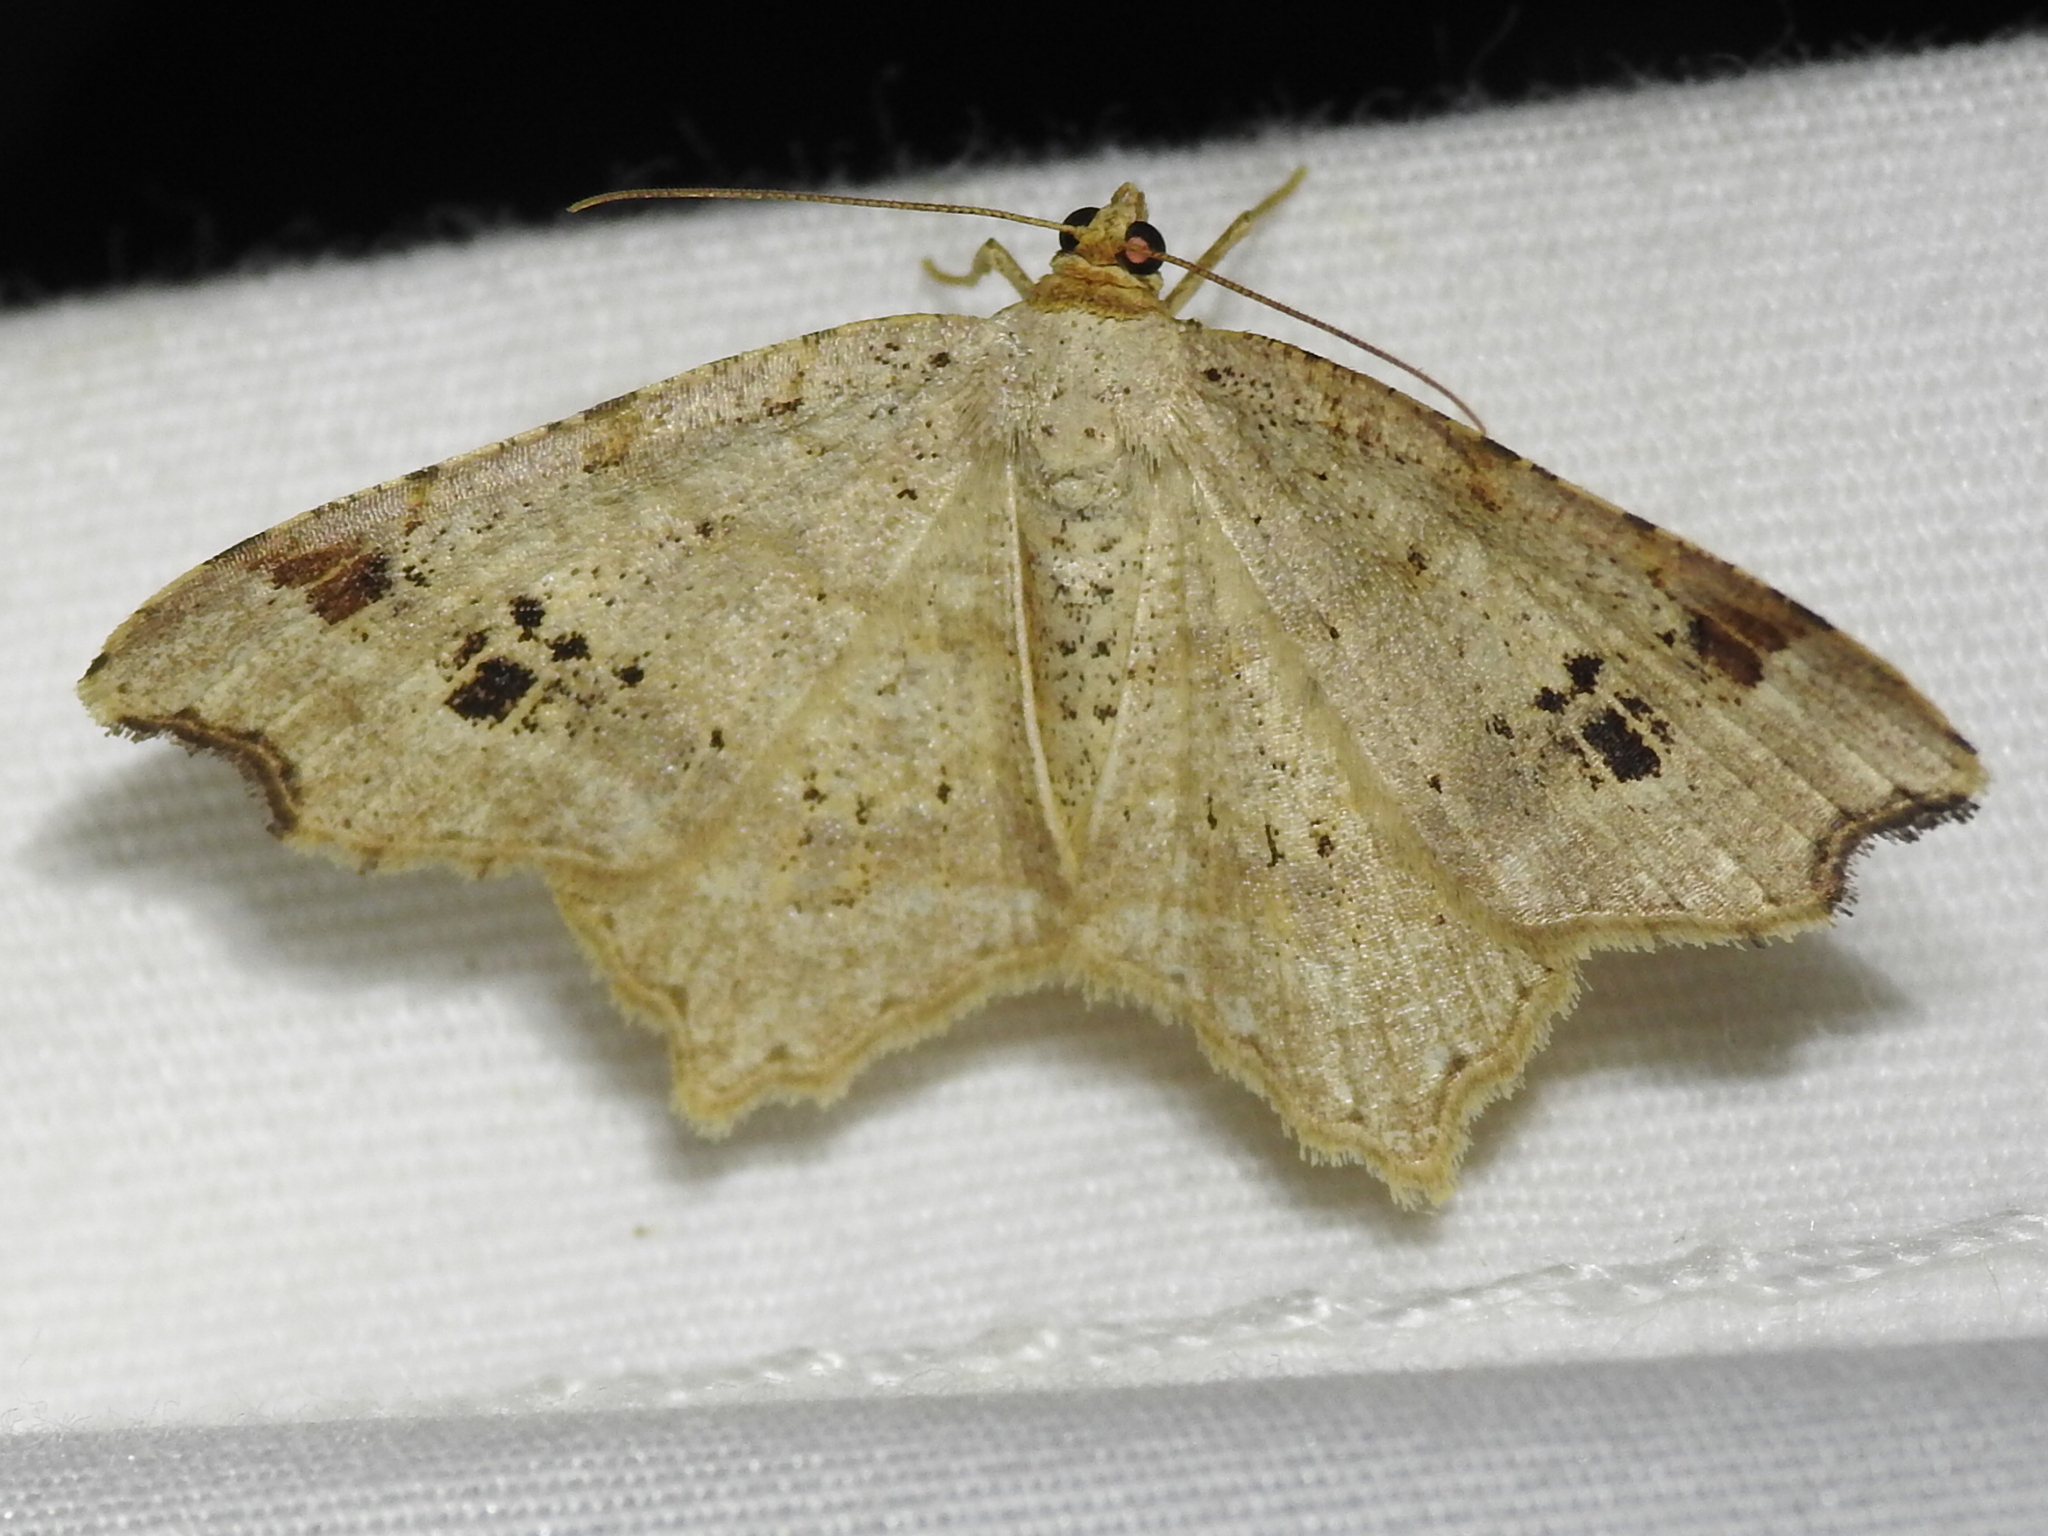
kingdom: Animalia
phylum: Arthropoda
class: Insecta
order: Lepidoptera
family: Geometridae
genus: Macaria
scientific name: Macaria aemulataria
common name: Common angle
